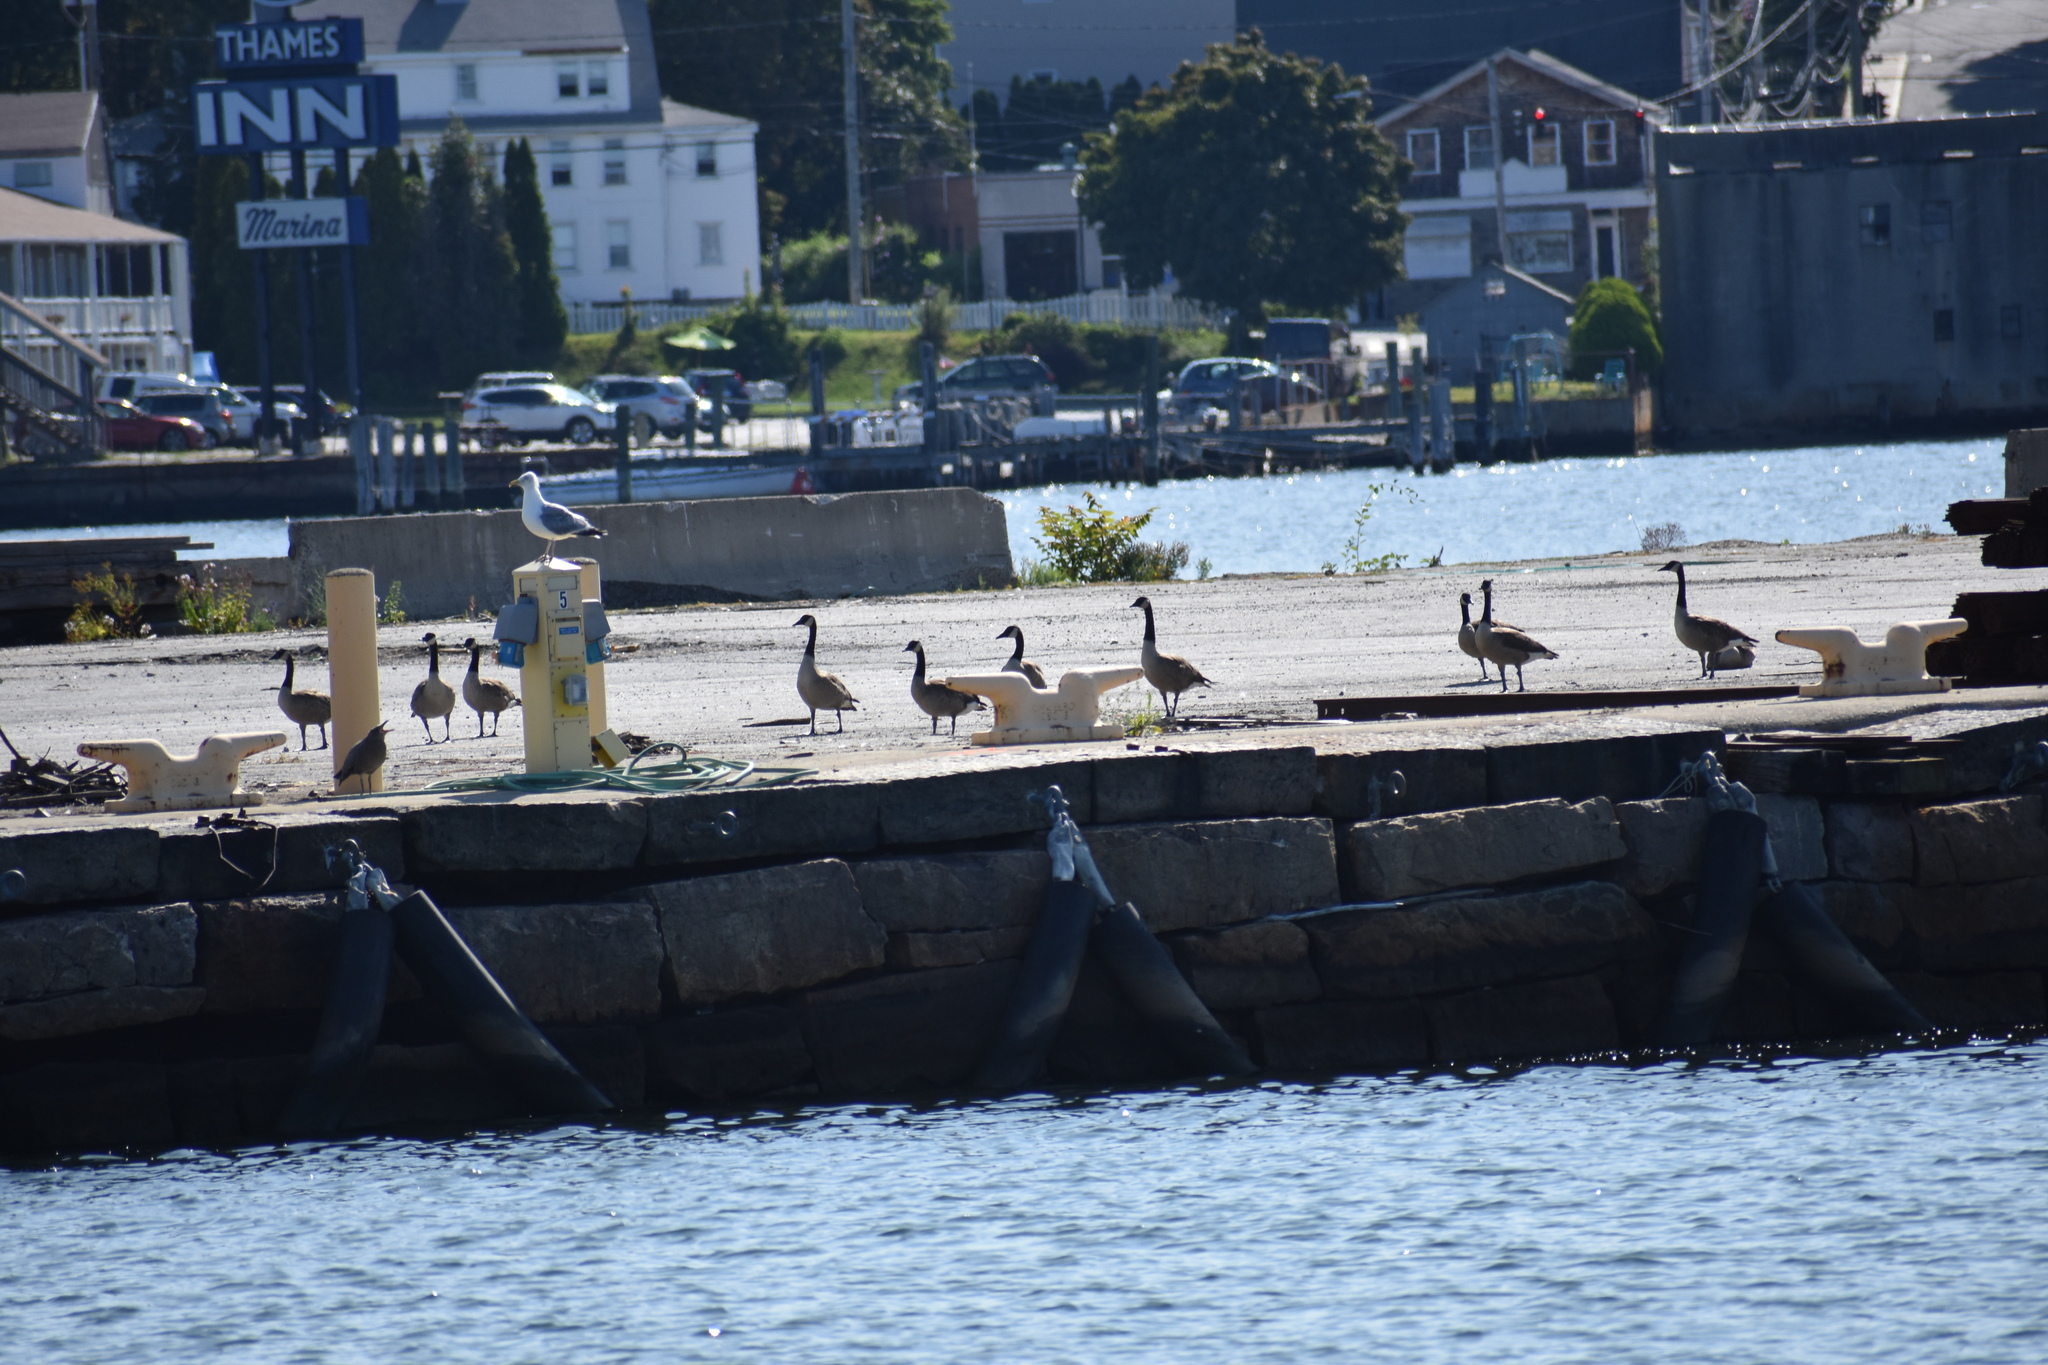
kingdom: Animalia
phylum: Chordata
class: Aves
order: Anseriformes
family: Anatidae
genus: Branta
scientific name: Branta canadensis
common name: Canada goose
